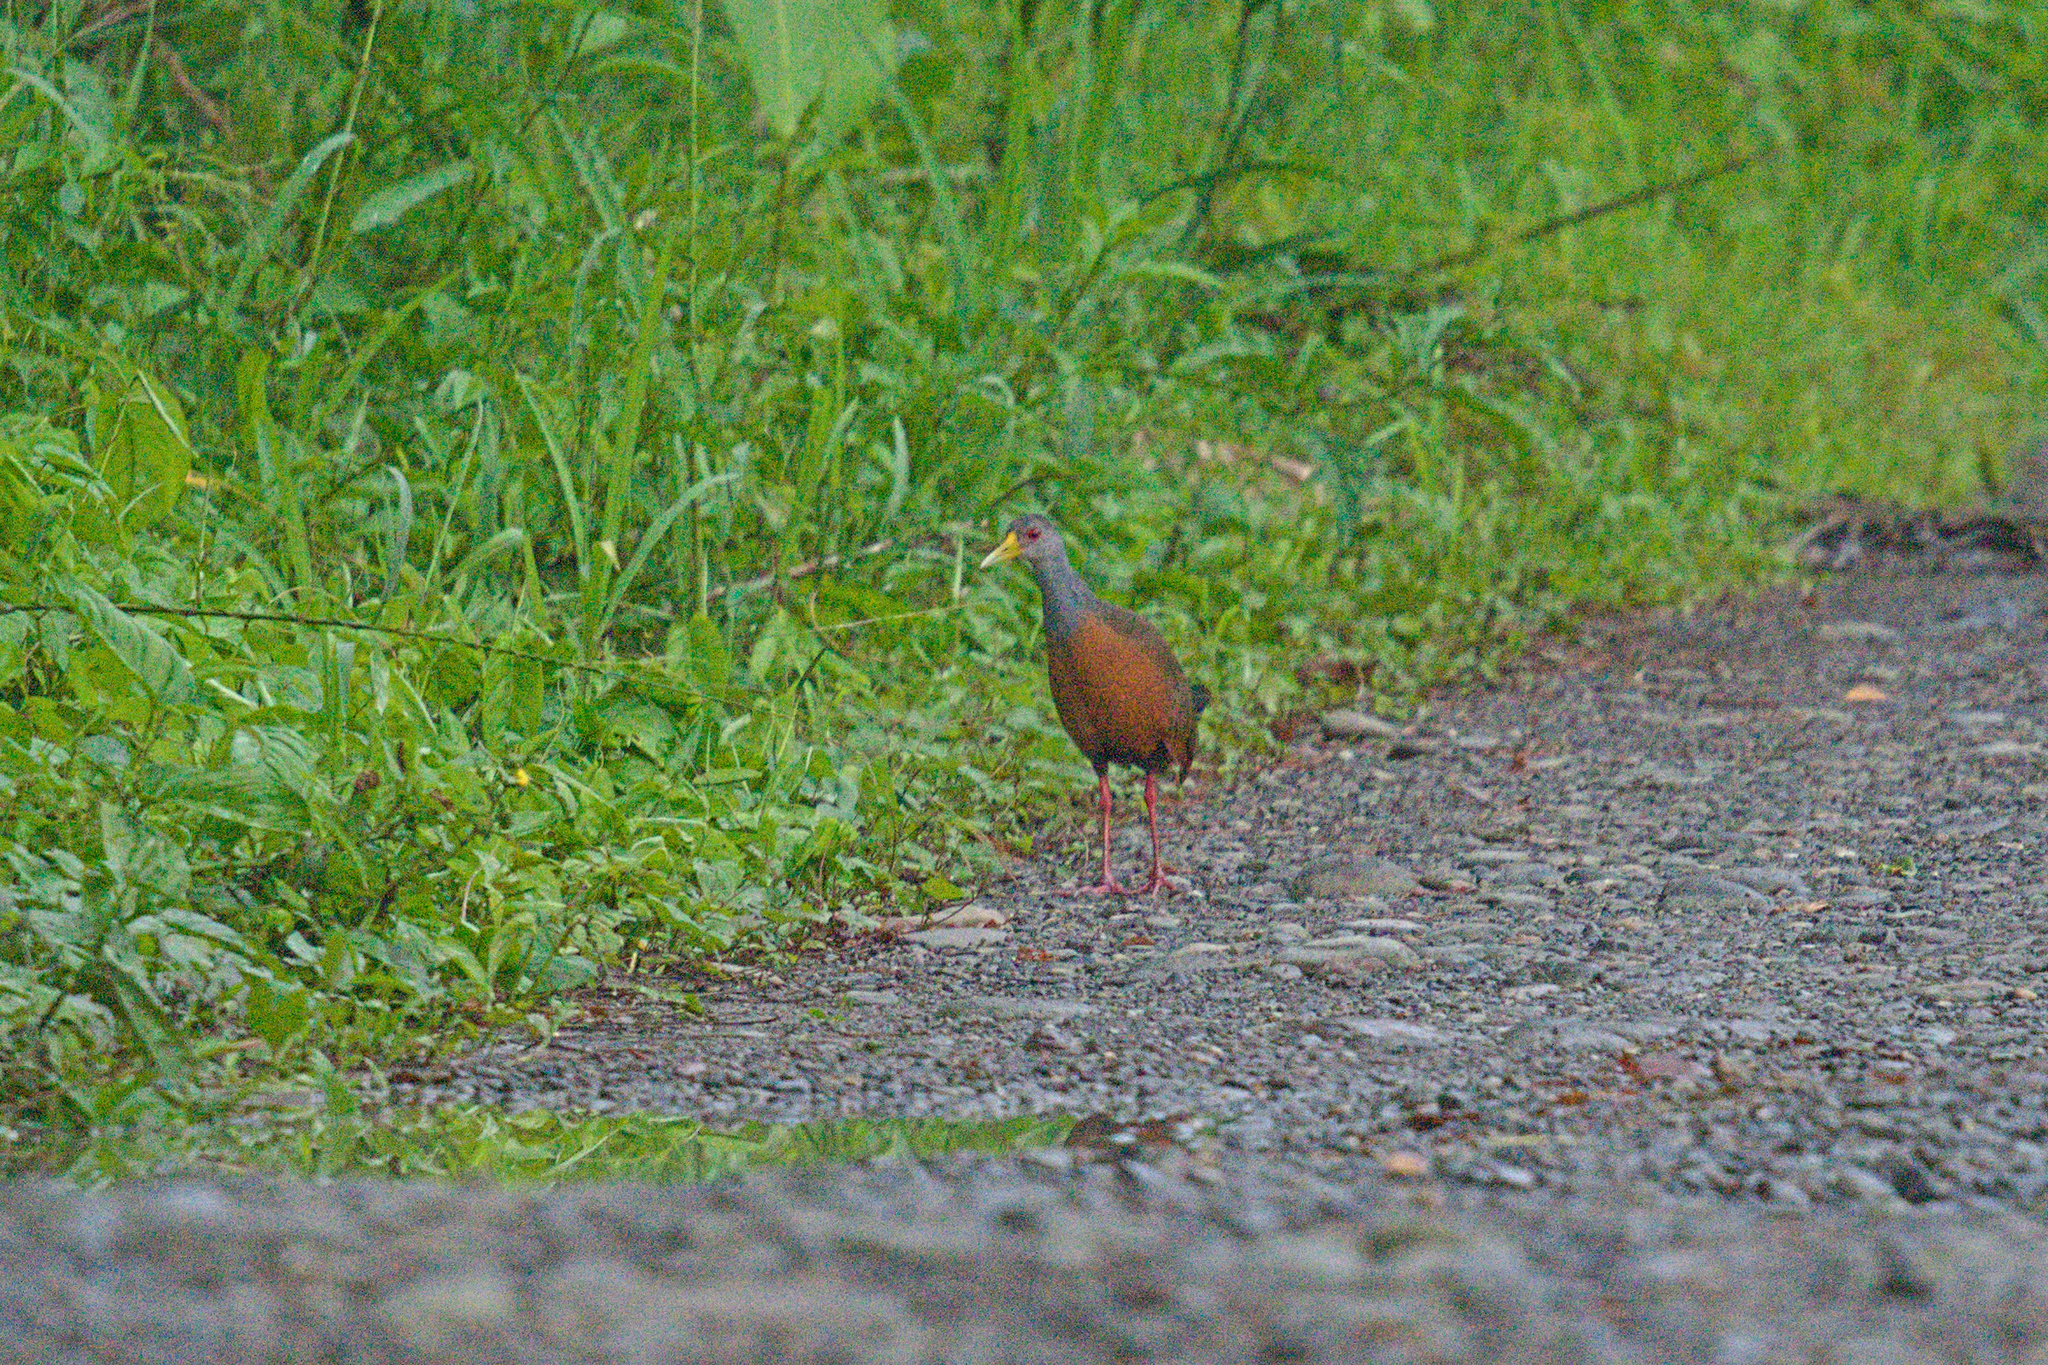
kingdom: Animalia
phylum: Chordata
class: Aves
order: Gruiformes
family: Rallidae
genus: Aramides
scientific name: Aramides cajanea
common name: Gray-necked wood-rail
